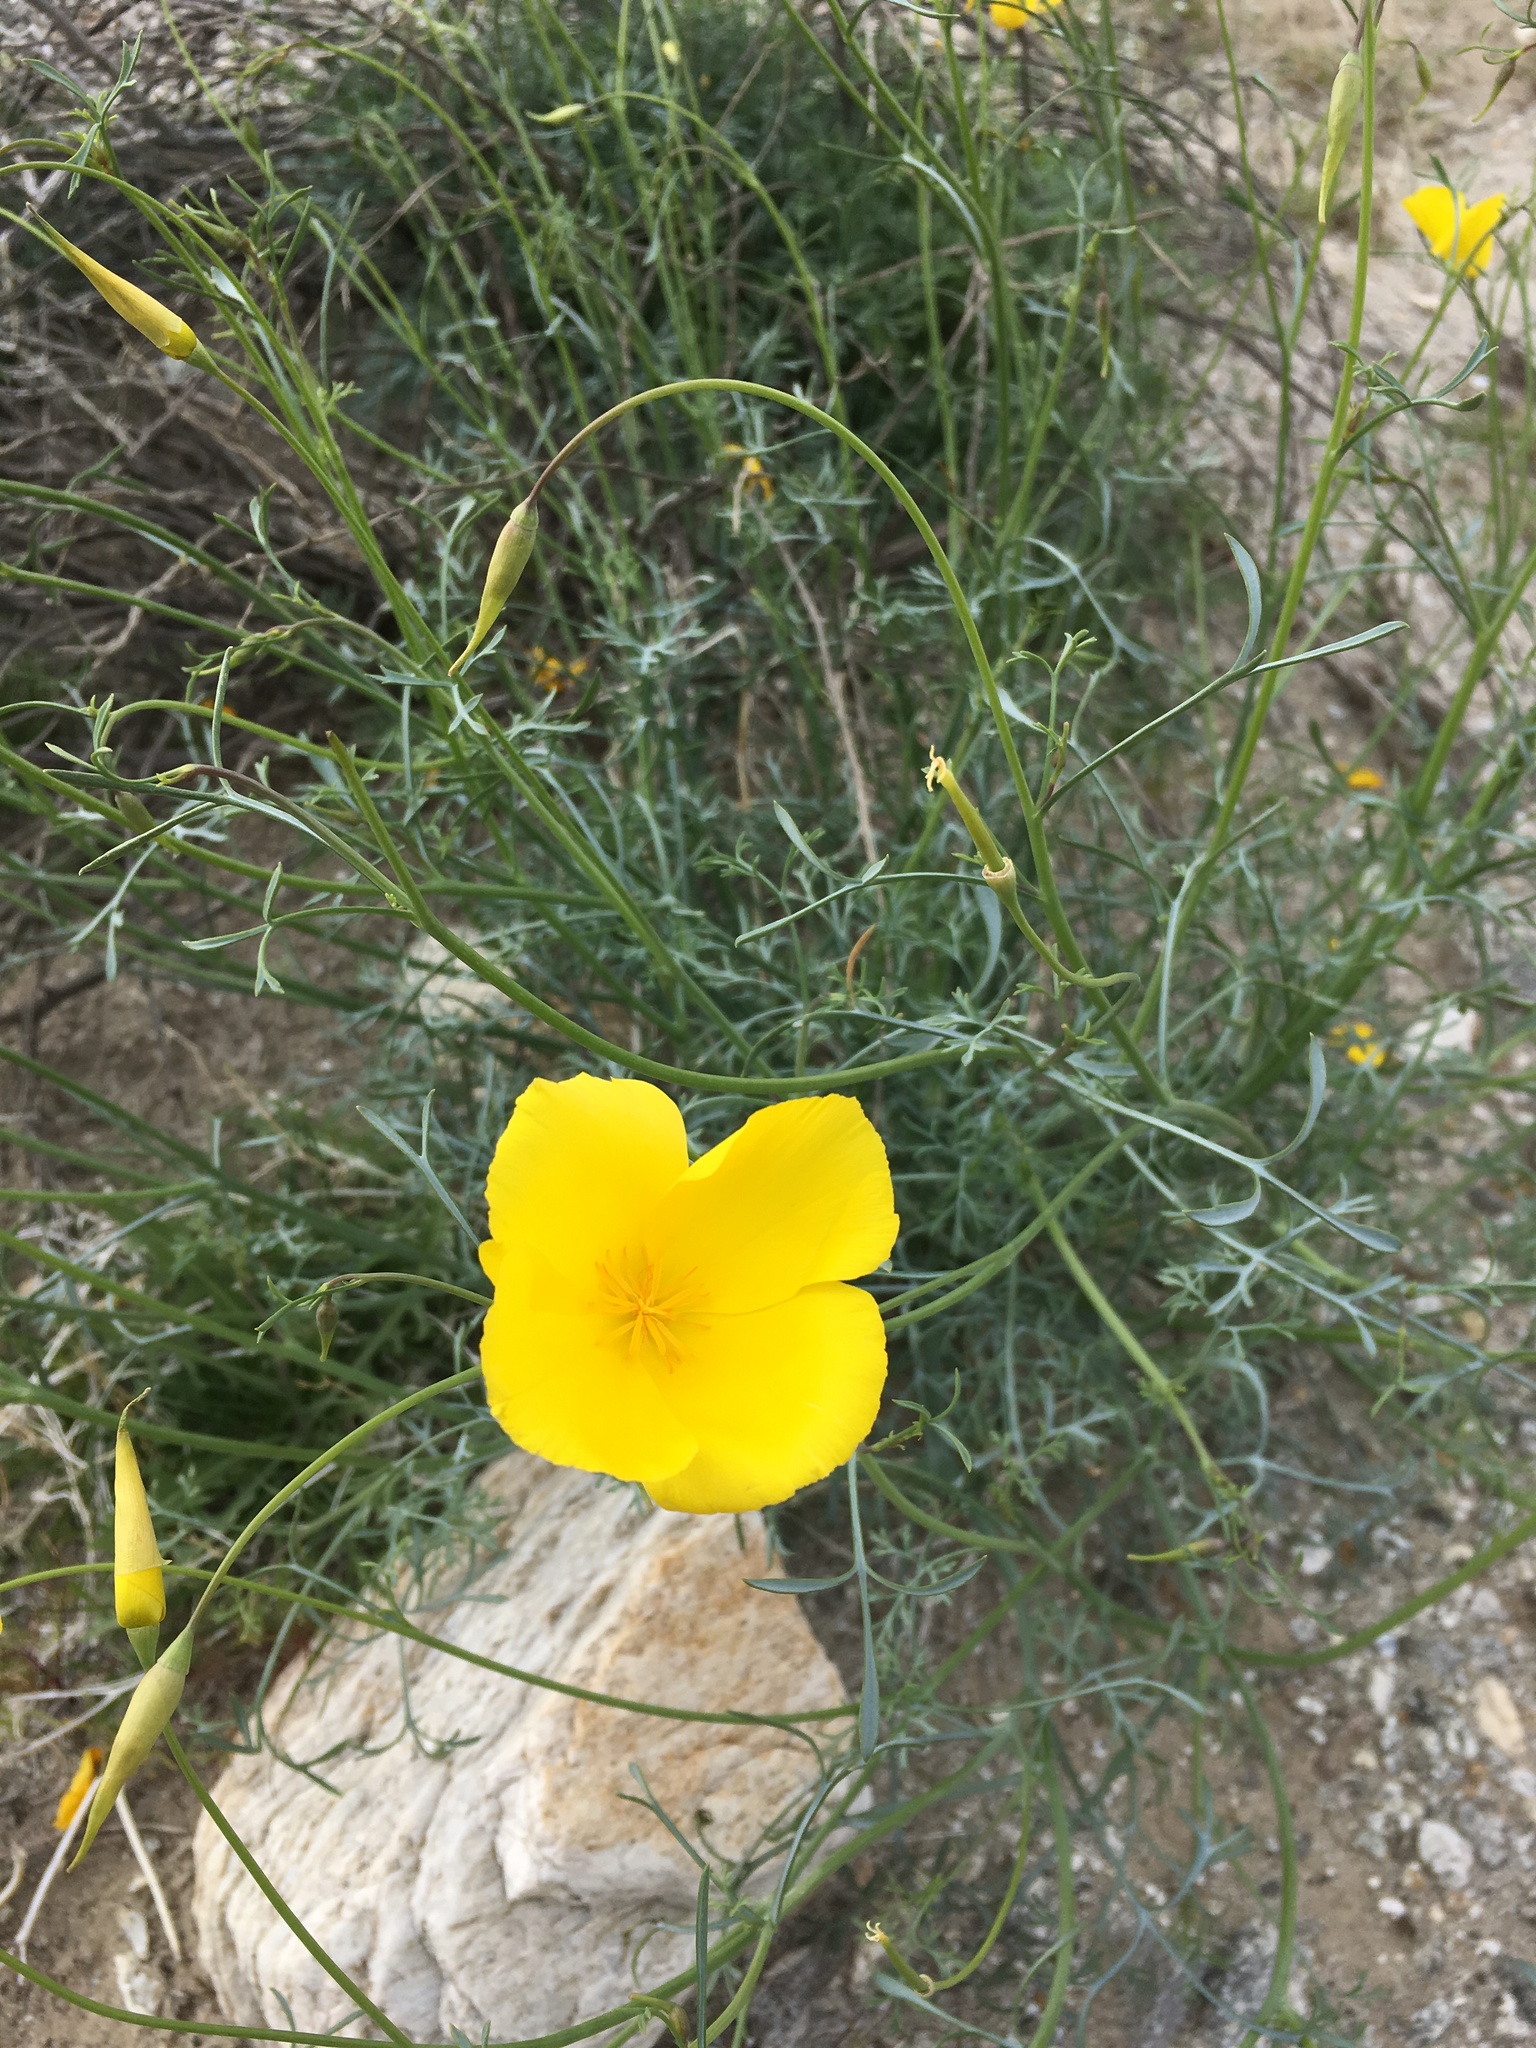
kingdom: Plantae
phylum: Tracheophyta
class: Magnoliopsida
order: Ranunculales
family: Papaveraceae
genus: Eschscholzia
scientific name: Eschscholzia parishii
